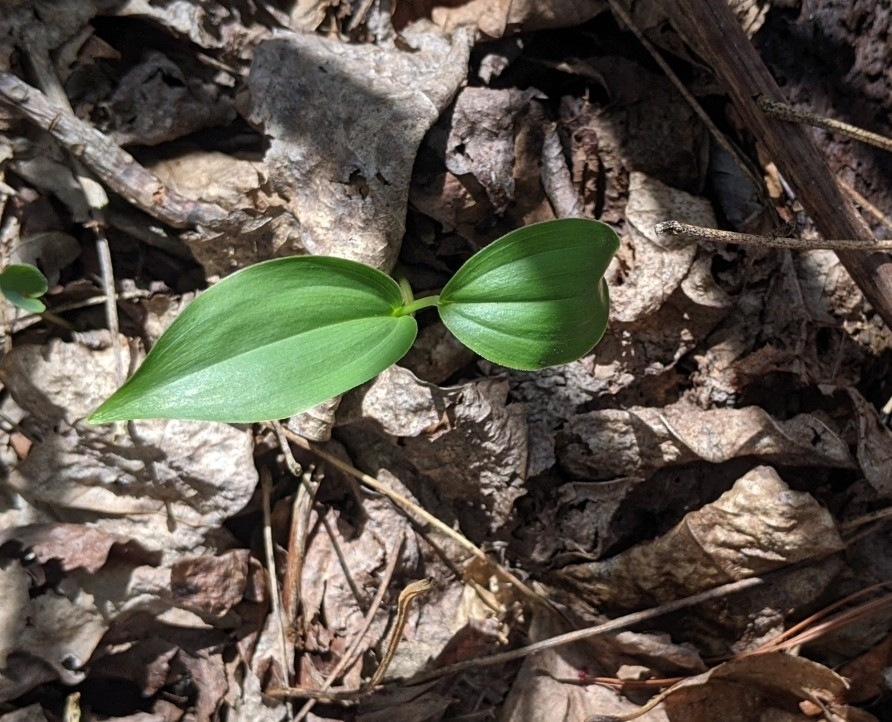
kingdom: Plantae
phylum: Tracheophyta
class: Liliopsida
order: Asparagales
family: Asparagaceae
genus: Maianthemum
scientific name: Maianthemum racemosum
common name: False spikenard
